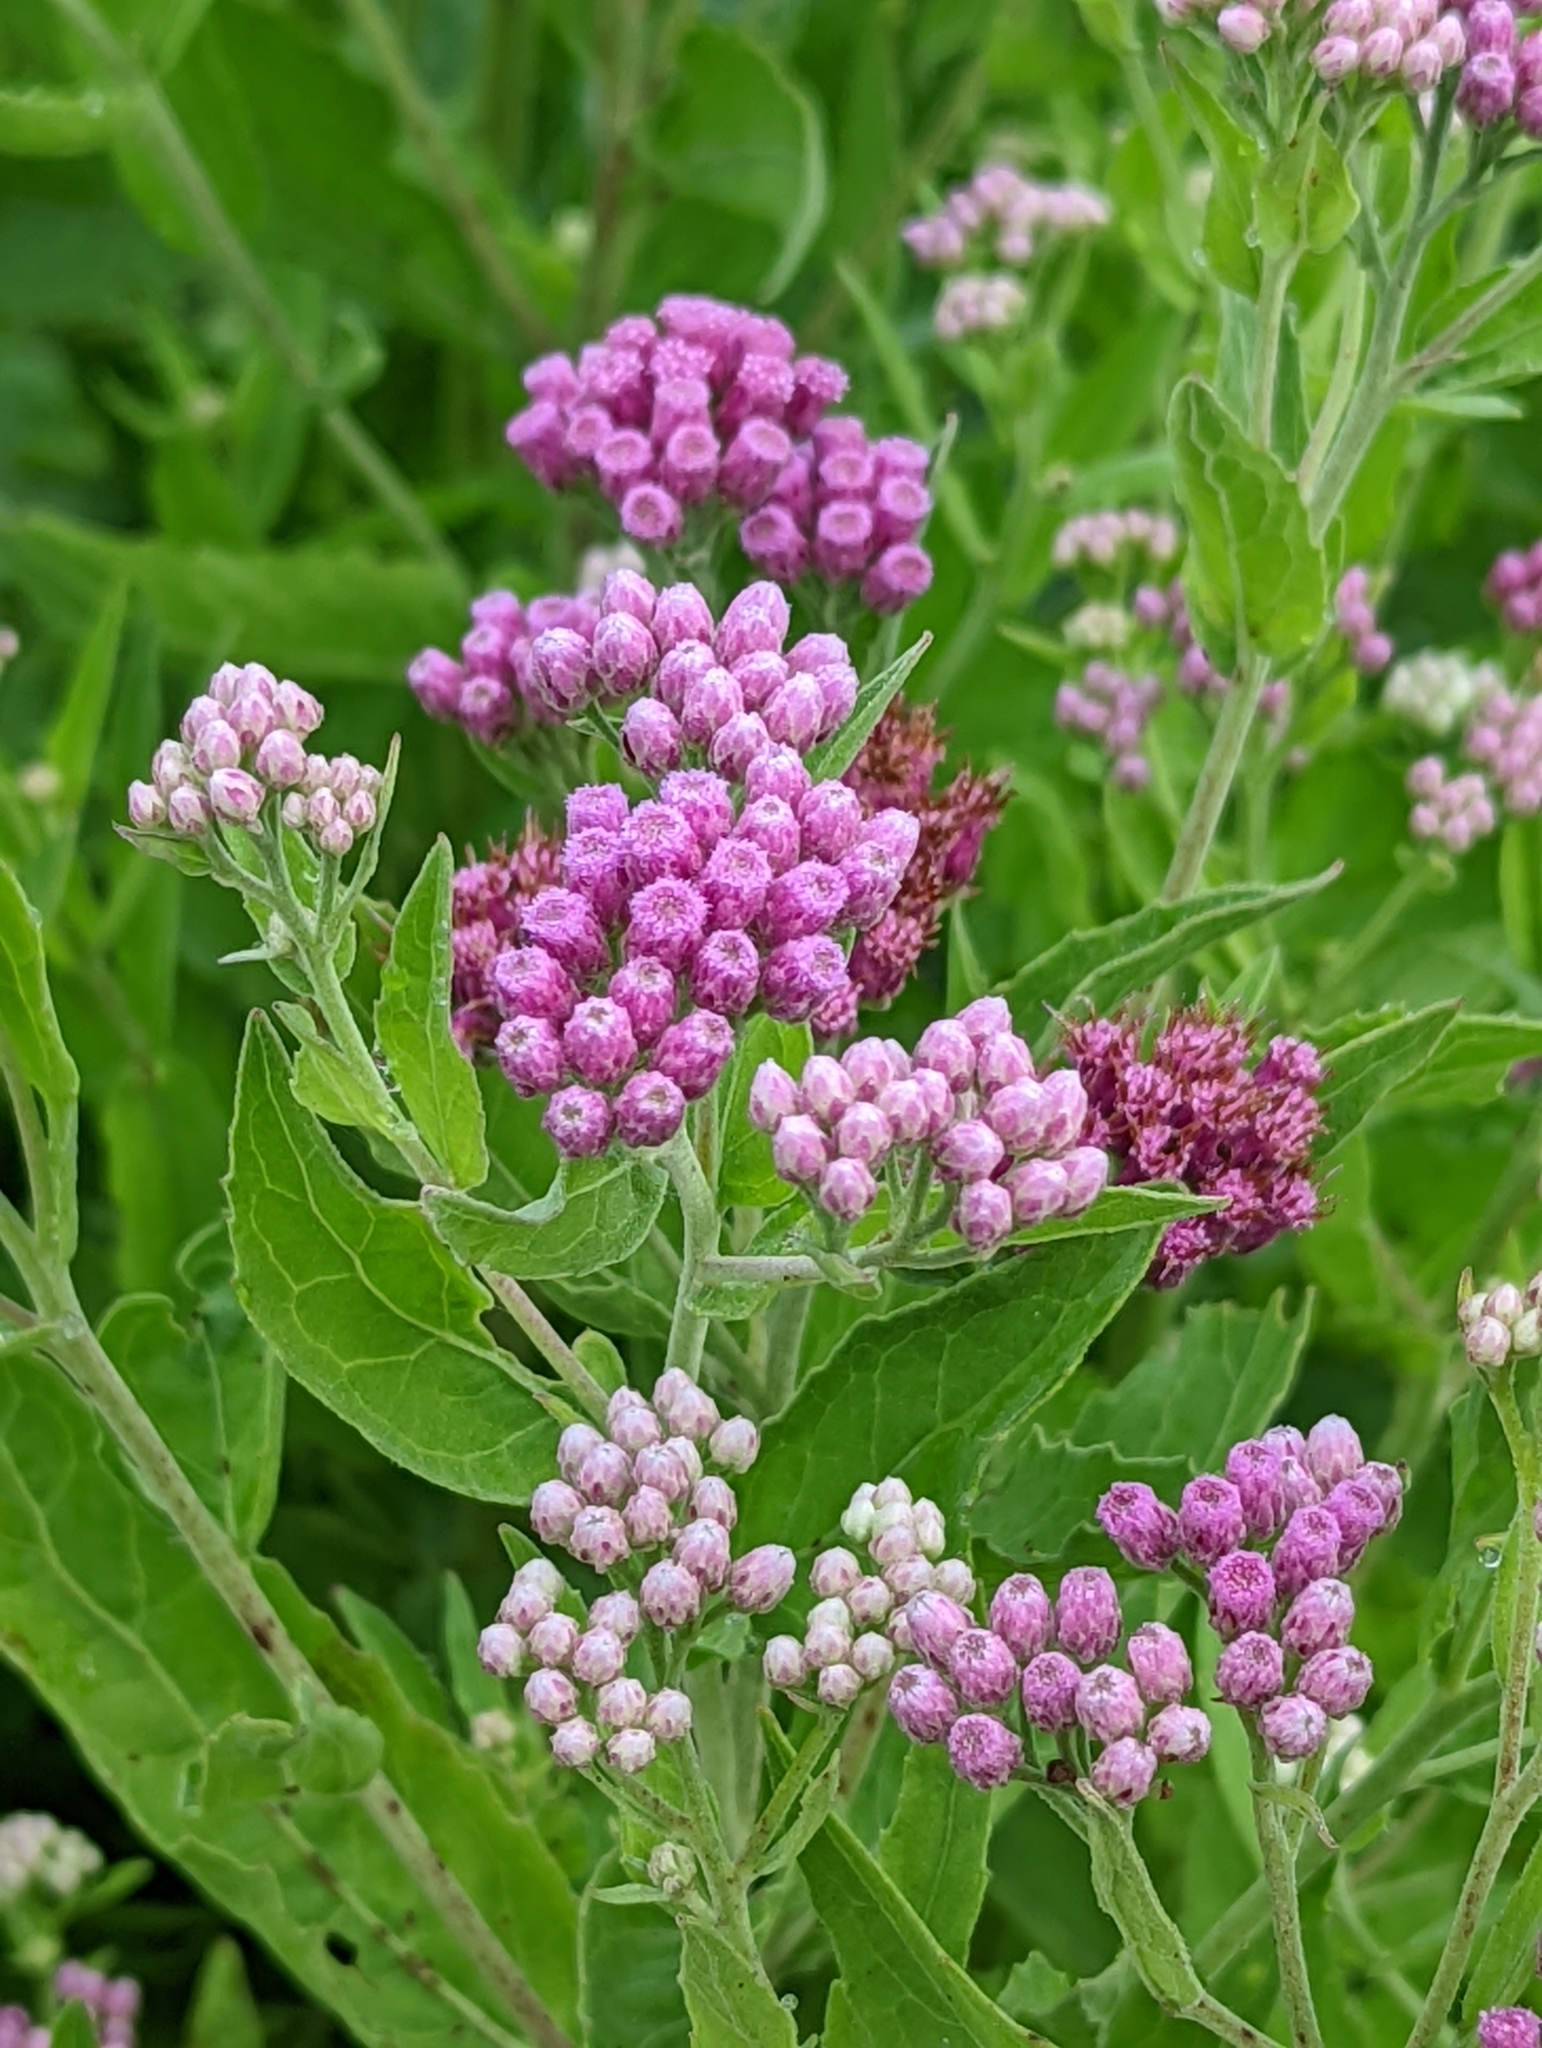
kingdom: Plantae
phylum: Tracheophyta
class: Magnoliopsida
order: Asterales
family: Asteraceae
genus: Pluchea
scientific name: Pluchea odorata
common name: Saltmarsh fleabane
